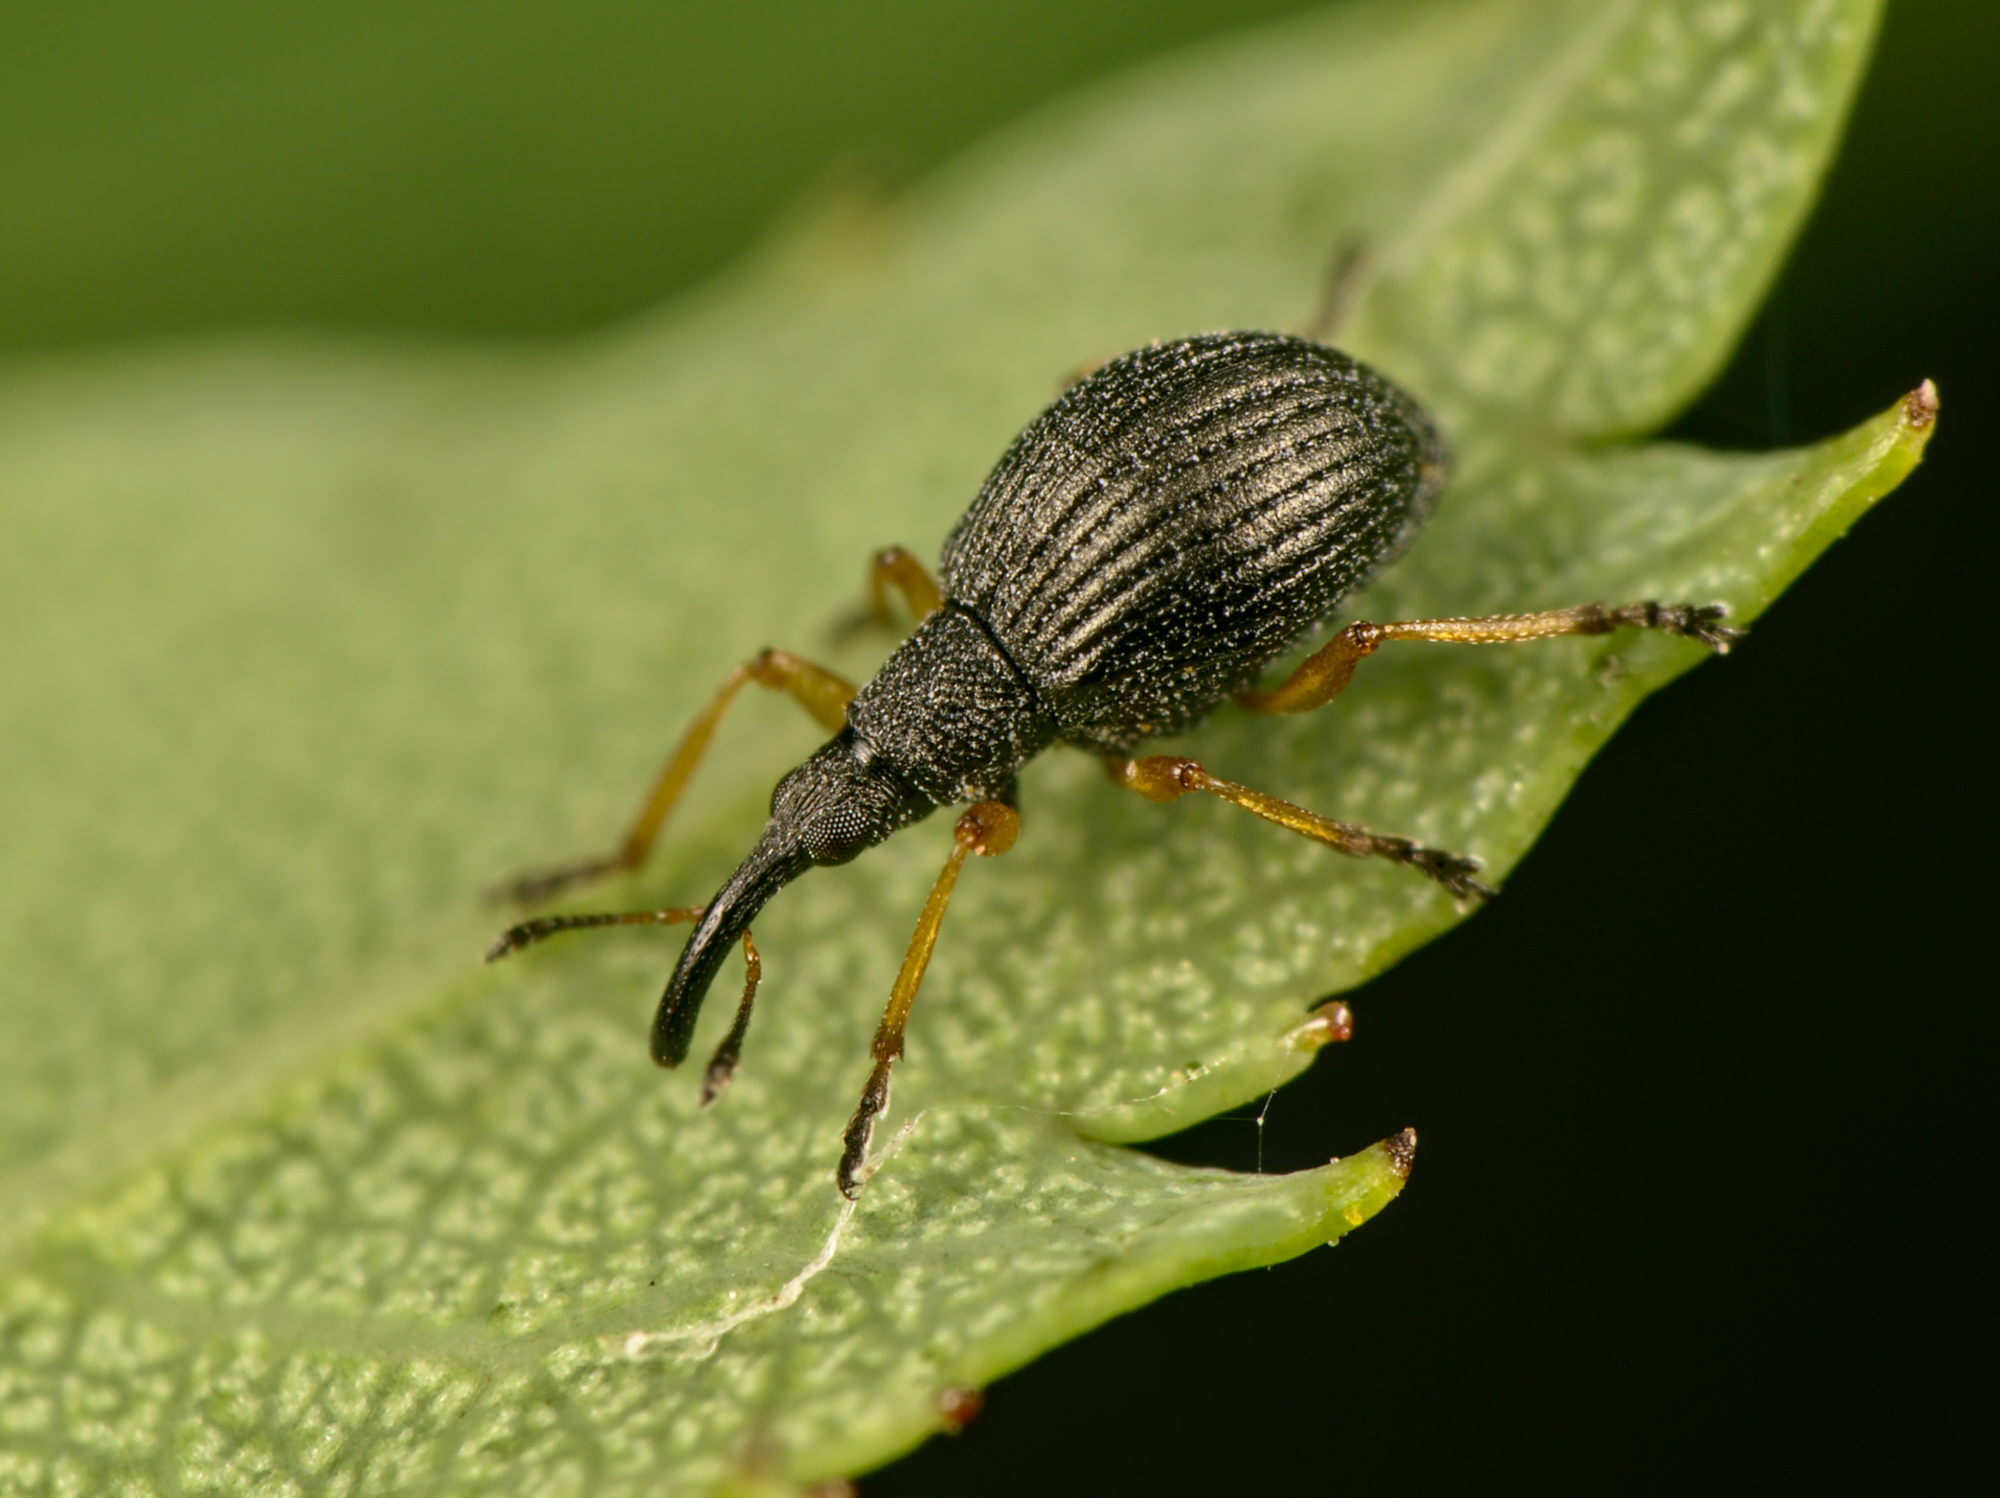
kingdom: Animalia
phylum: Arthropoda
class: Insecta
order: Coleoptera
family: Apionidae
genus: Protapion
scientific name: Protapion fulvipes
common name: White clover seed weevil
